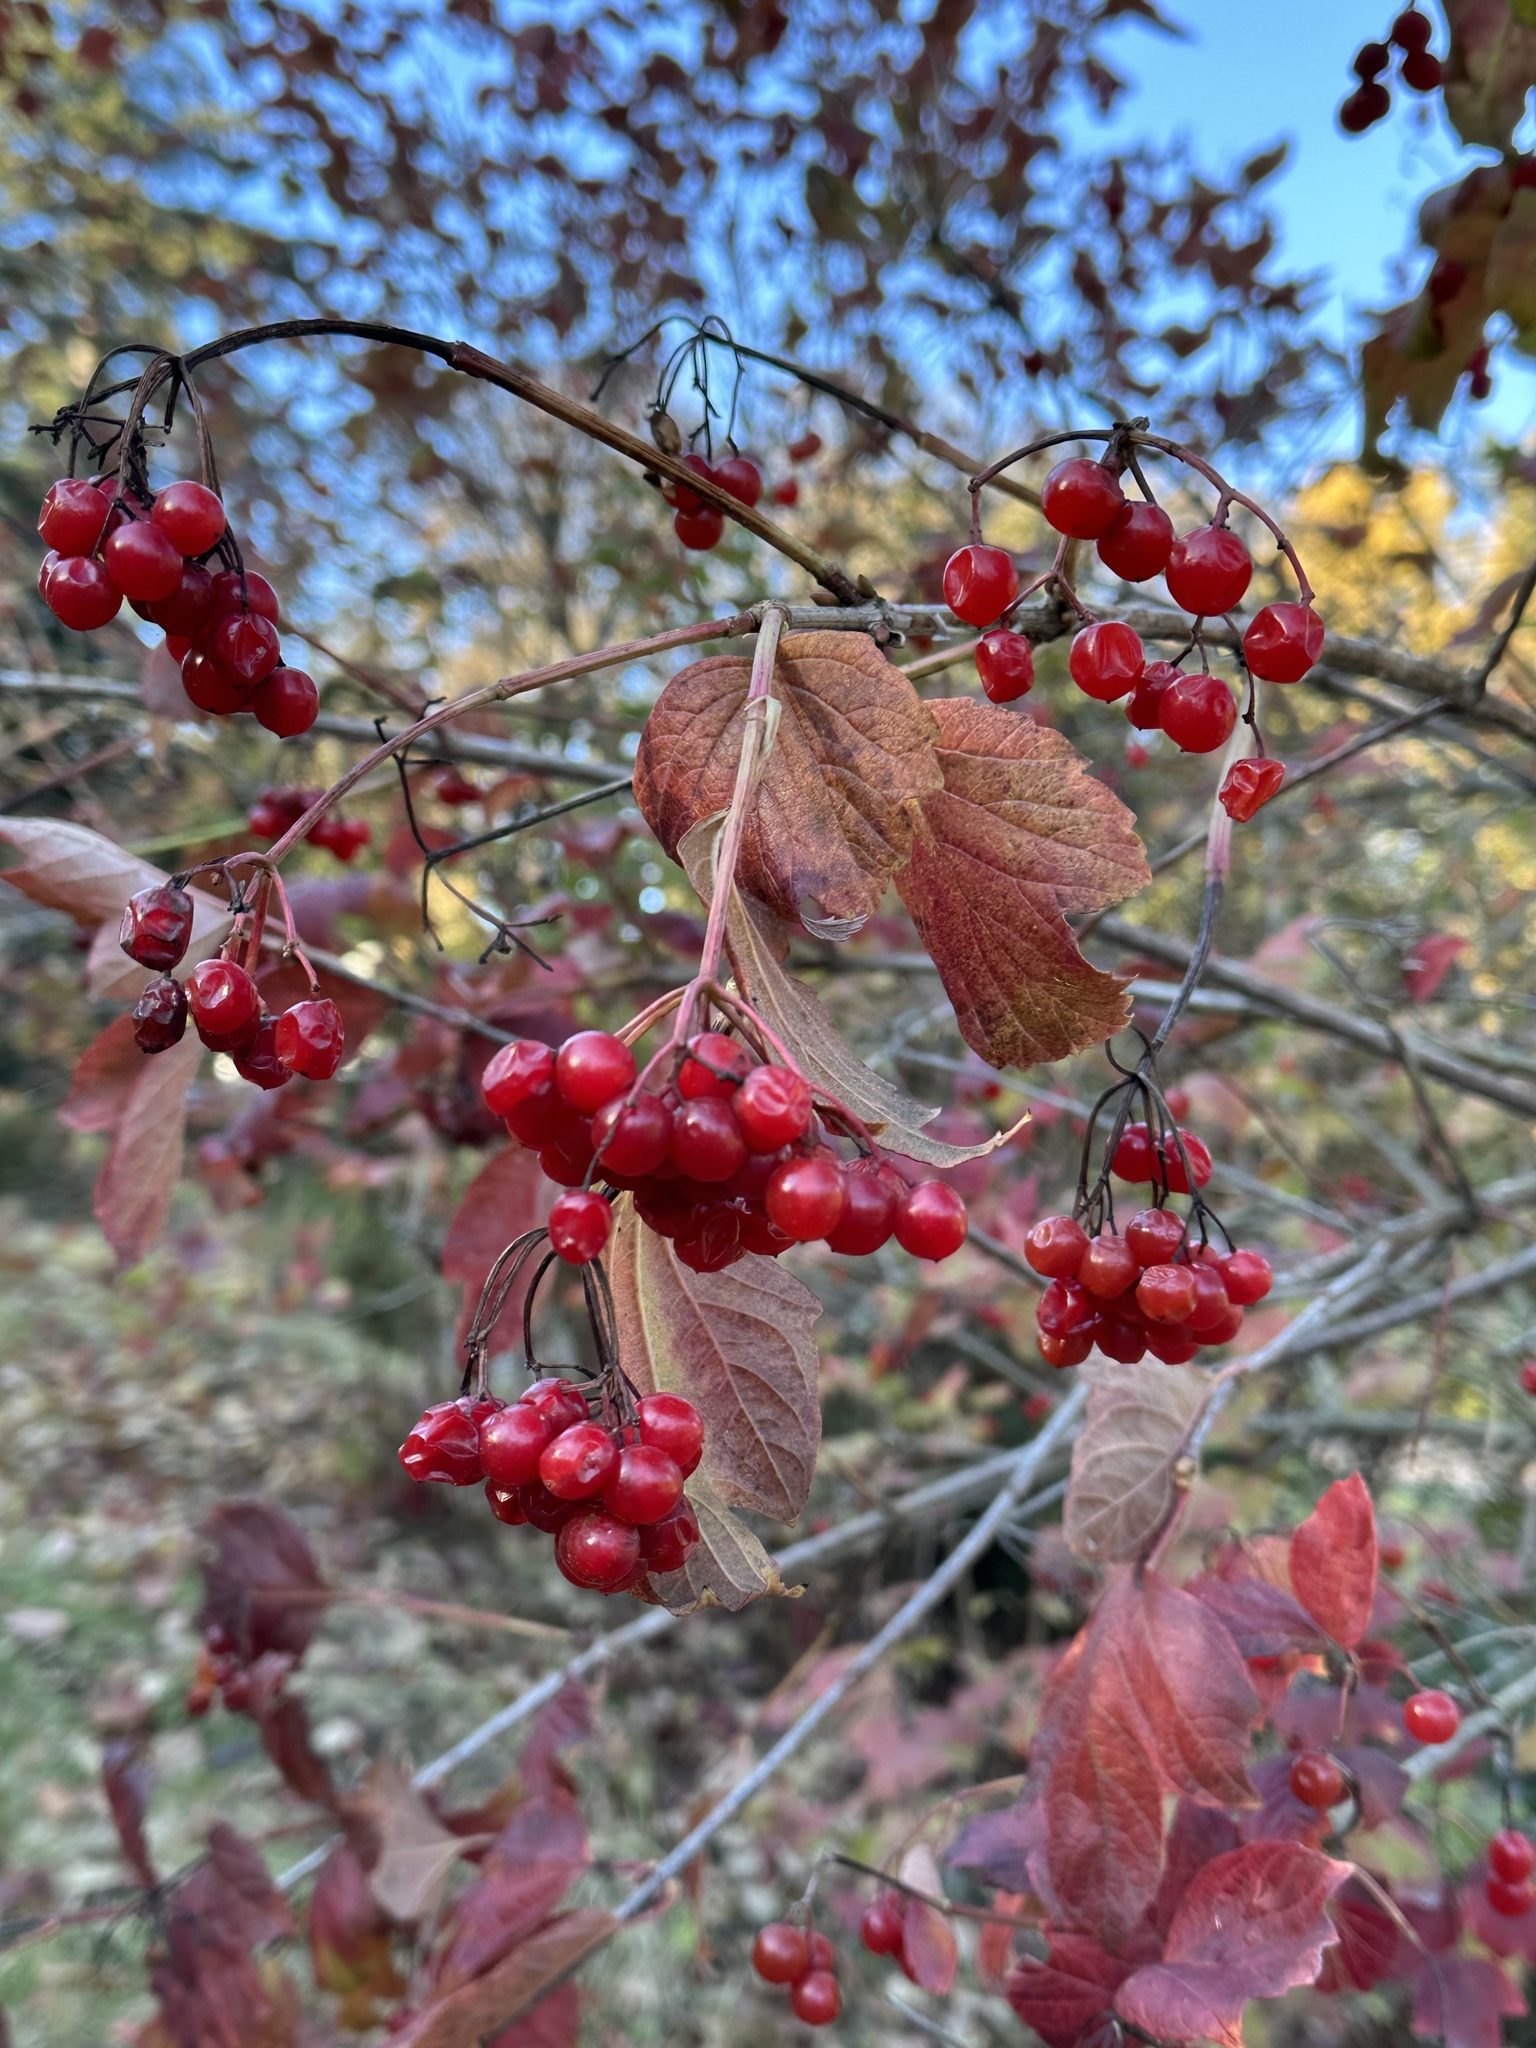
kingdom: Plantae
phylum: Tracheophyta
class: Magnoliopsida
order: Dipsacales
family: Viburnaceae
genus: Viburnum
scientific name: Viburnum opulus
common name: Guelder-rose
